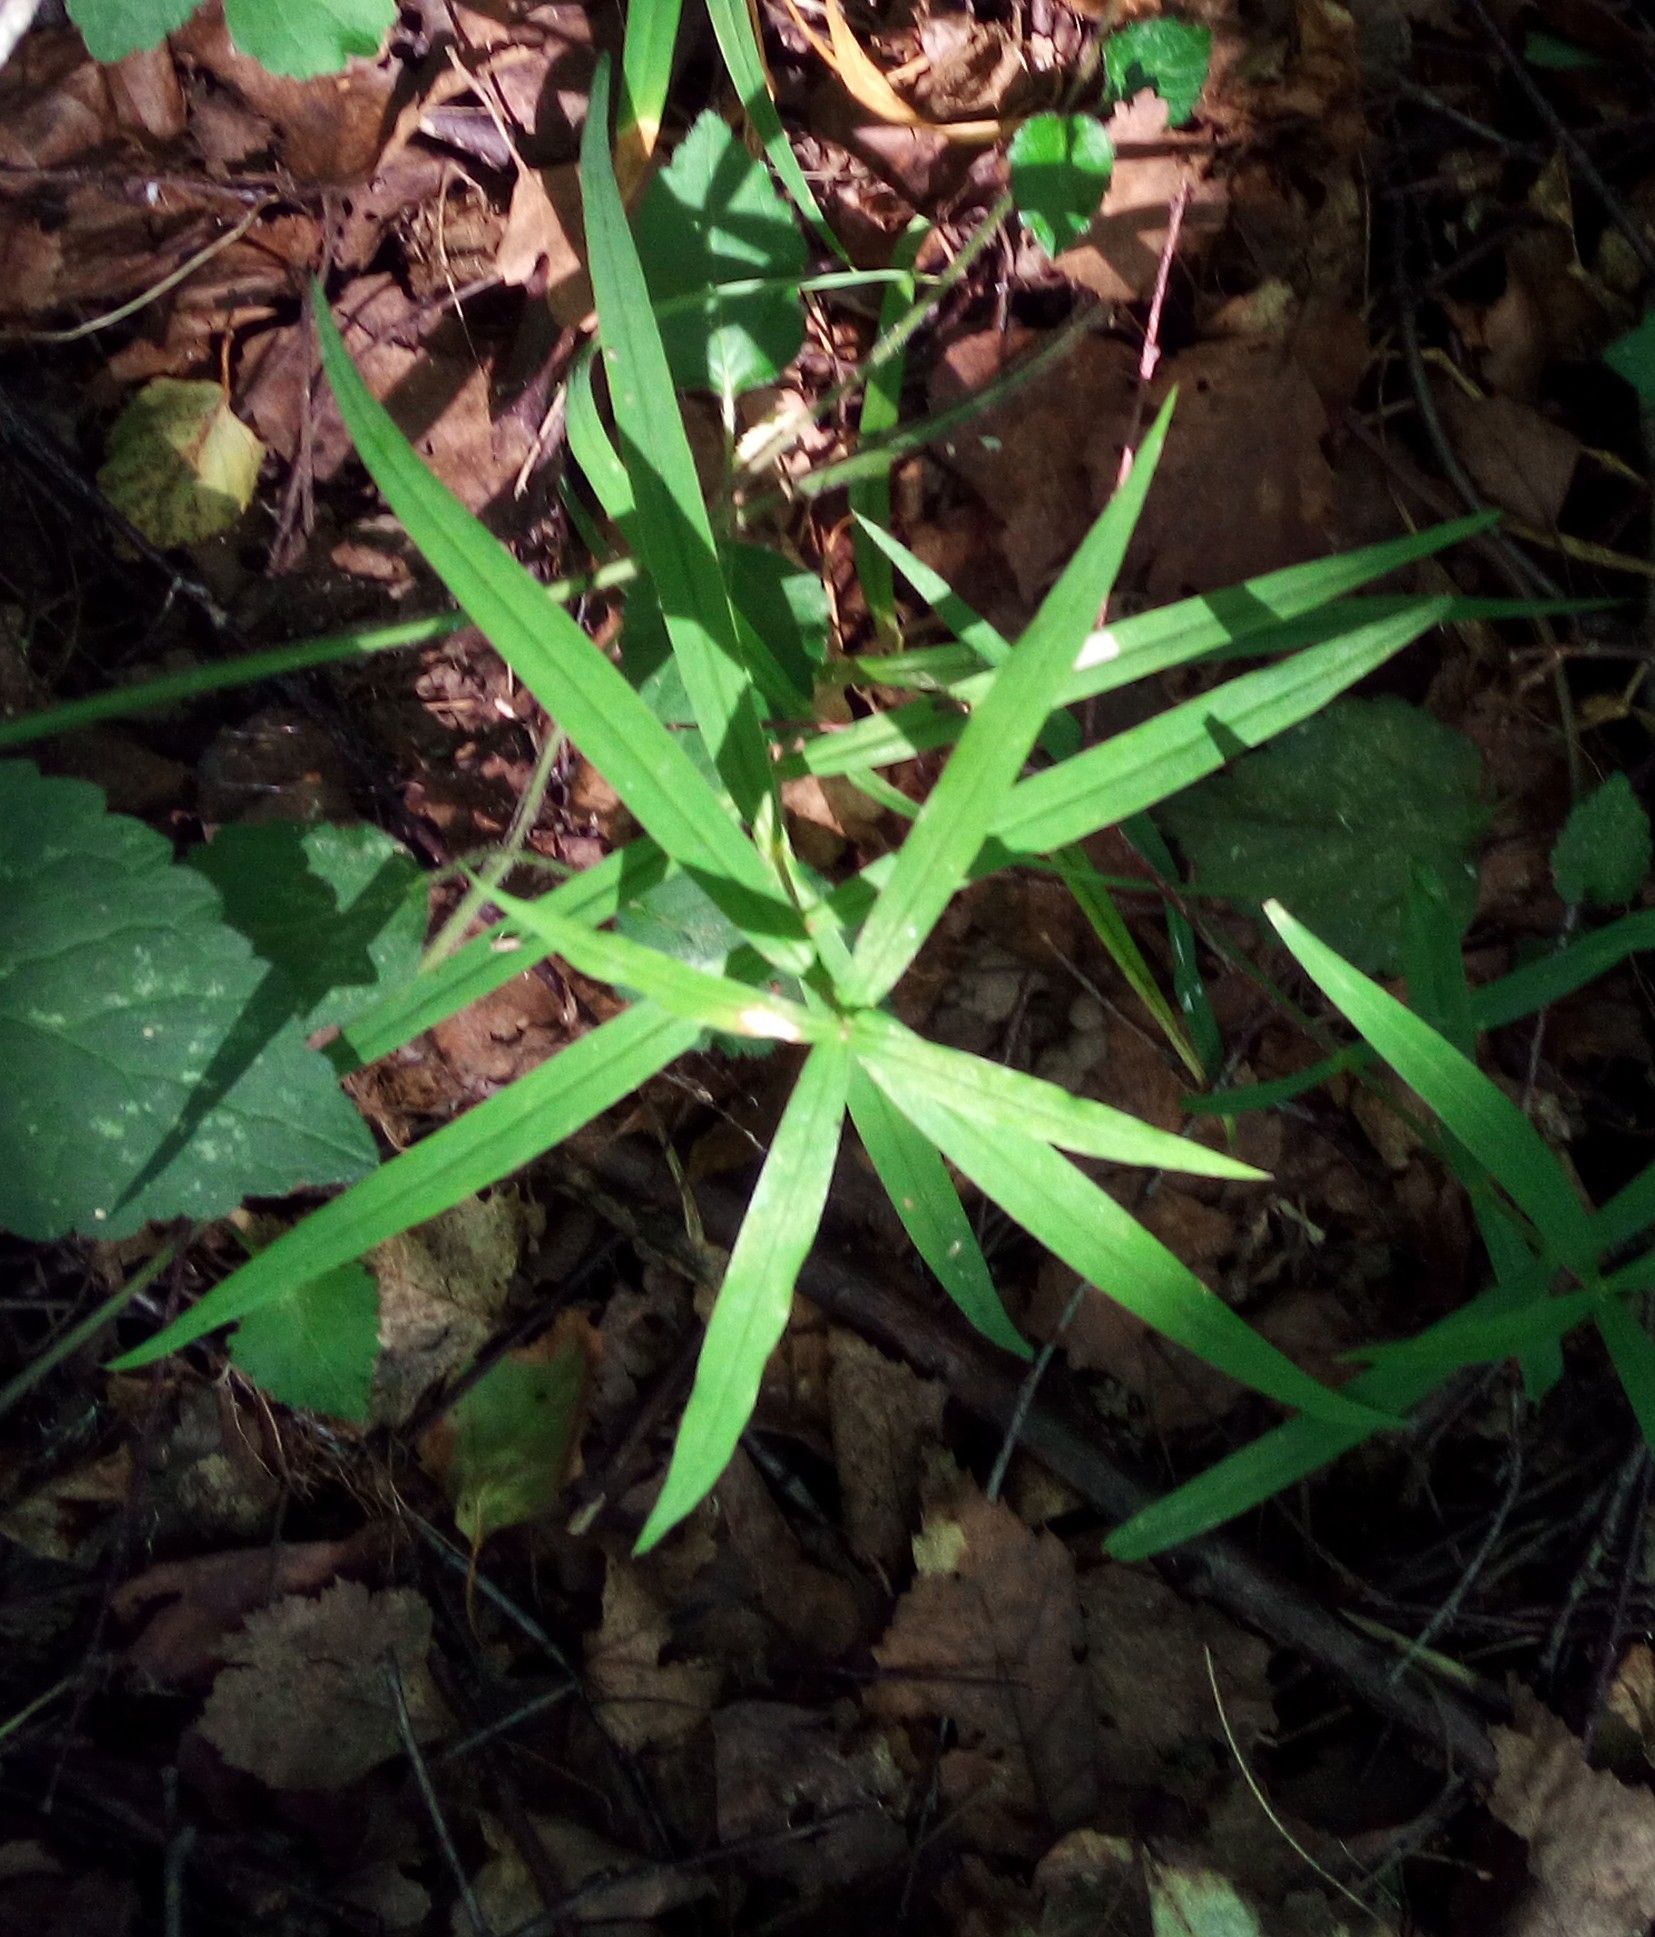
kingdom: Plantae
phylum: Tracheophyta
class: Magnoliopsida
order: Caryophyllales
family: Caryophyllaceae
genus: Rabelera
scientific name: Rabelera holostea
